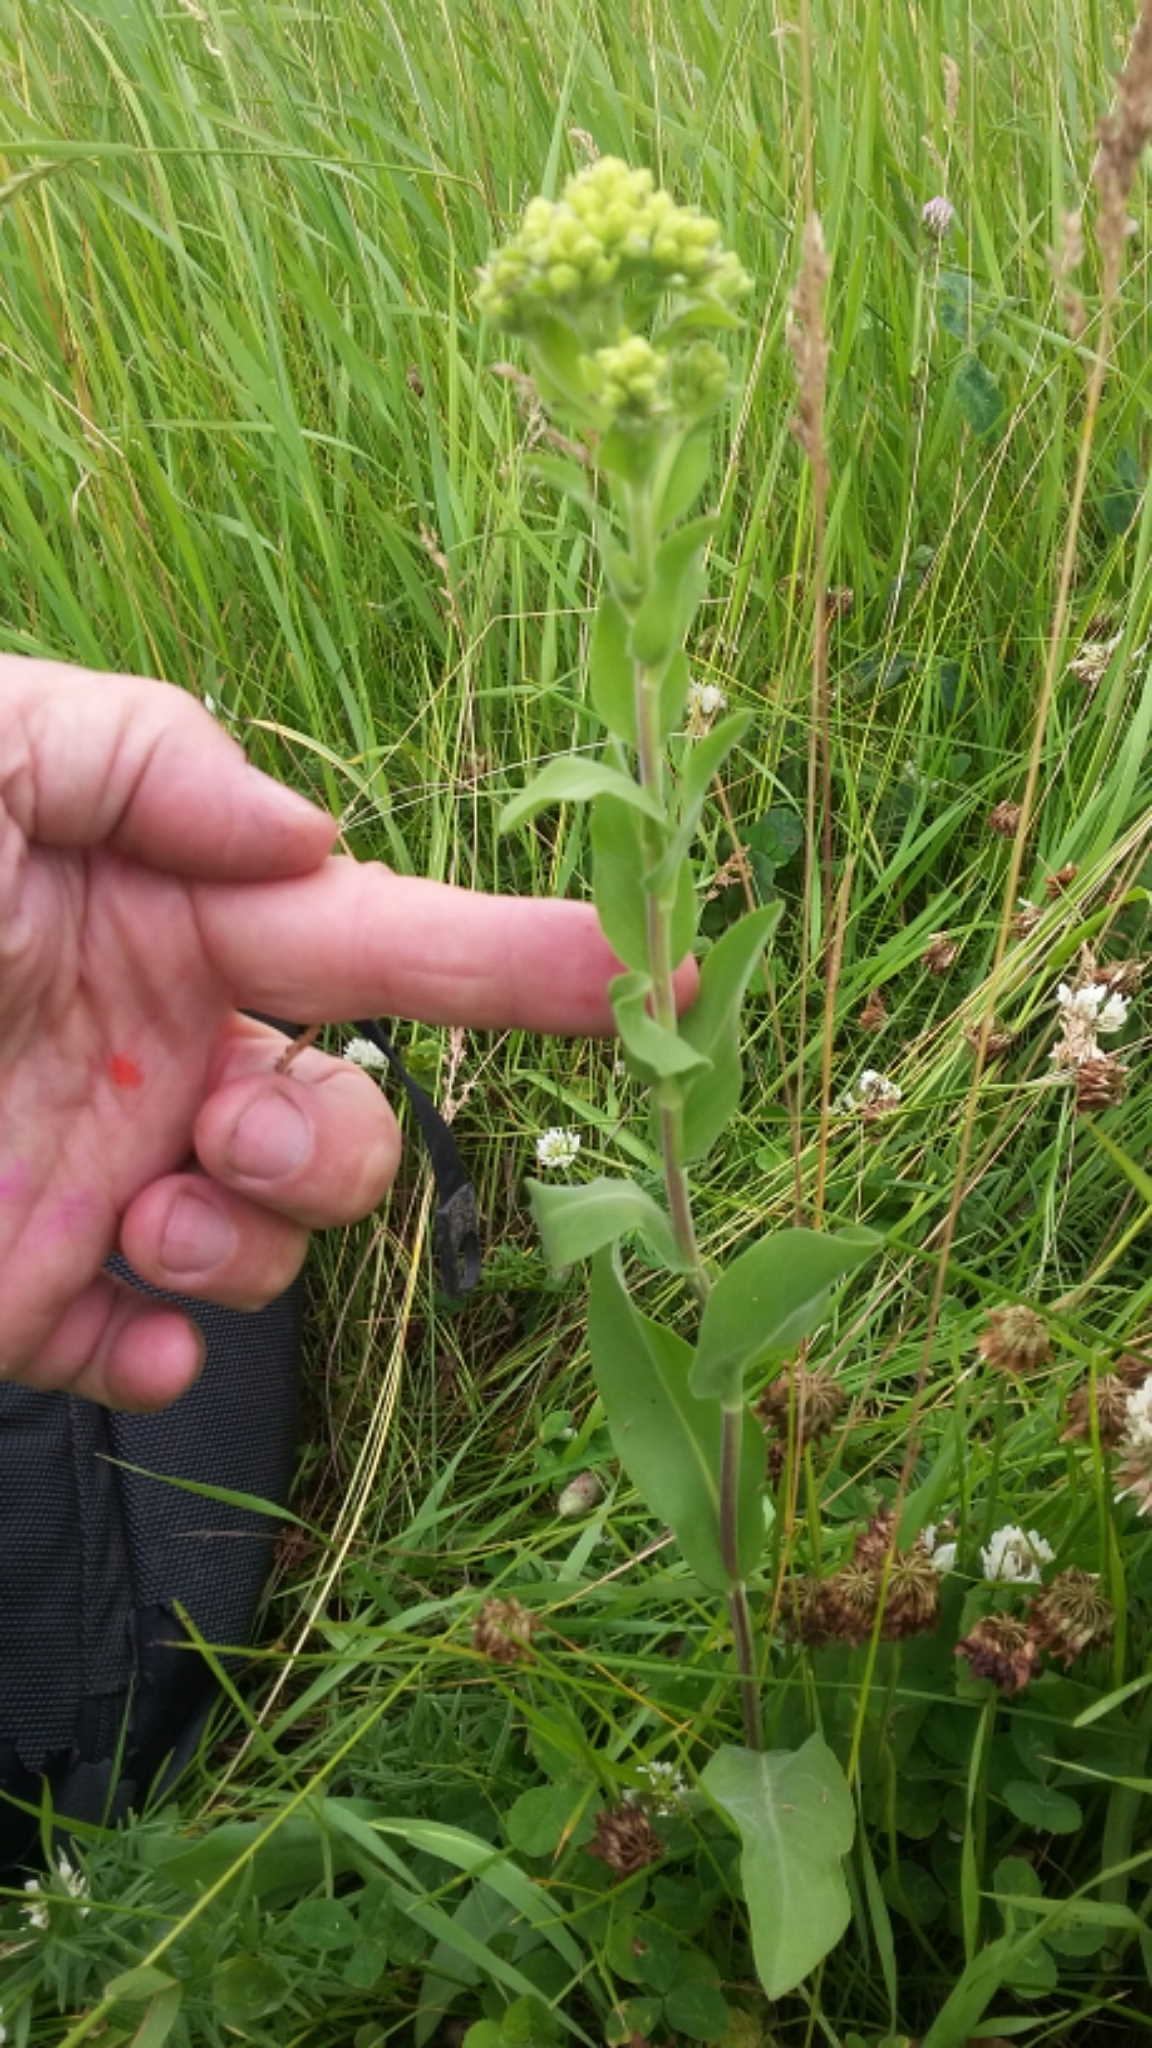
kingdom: Plantae
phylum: Tracheophyta
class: Magnoliopsida
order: Asterales
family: Asteraceae
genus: Solidago
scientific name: Solidago rigida
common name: Rigid goldenrod
